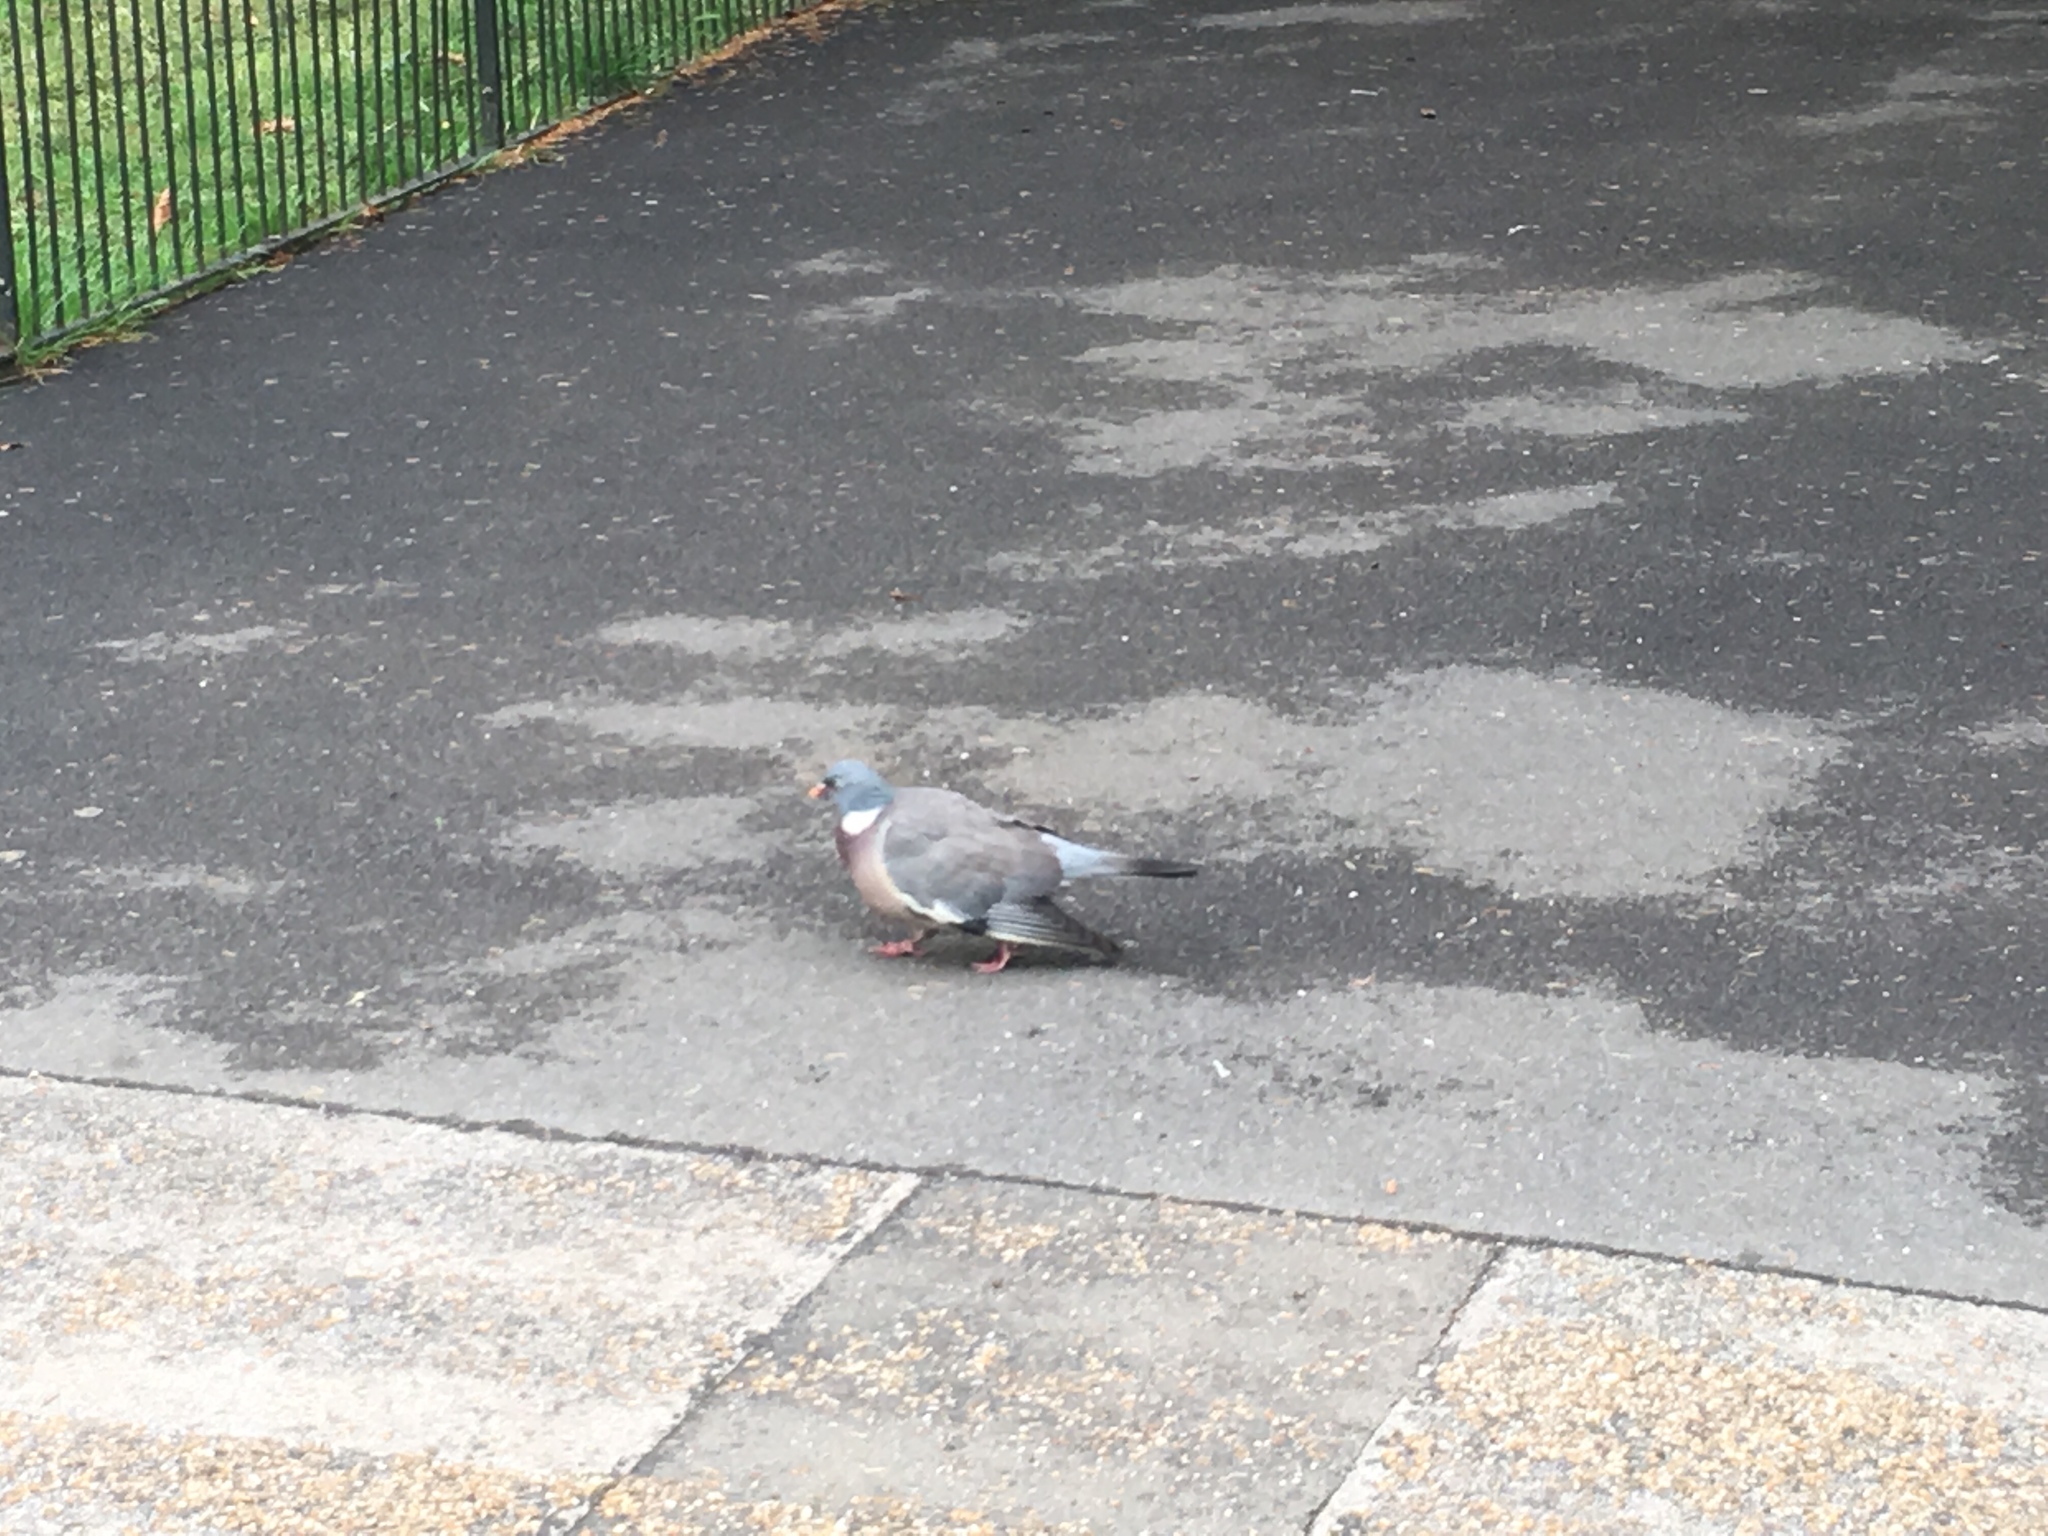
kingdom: Animalia
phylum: Chordata
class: Aves
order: Columbiformes
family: Columbidae
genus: Columba
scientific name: Columba palumbus
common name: Common wood pigeon
